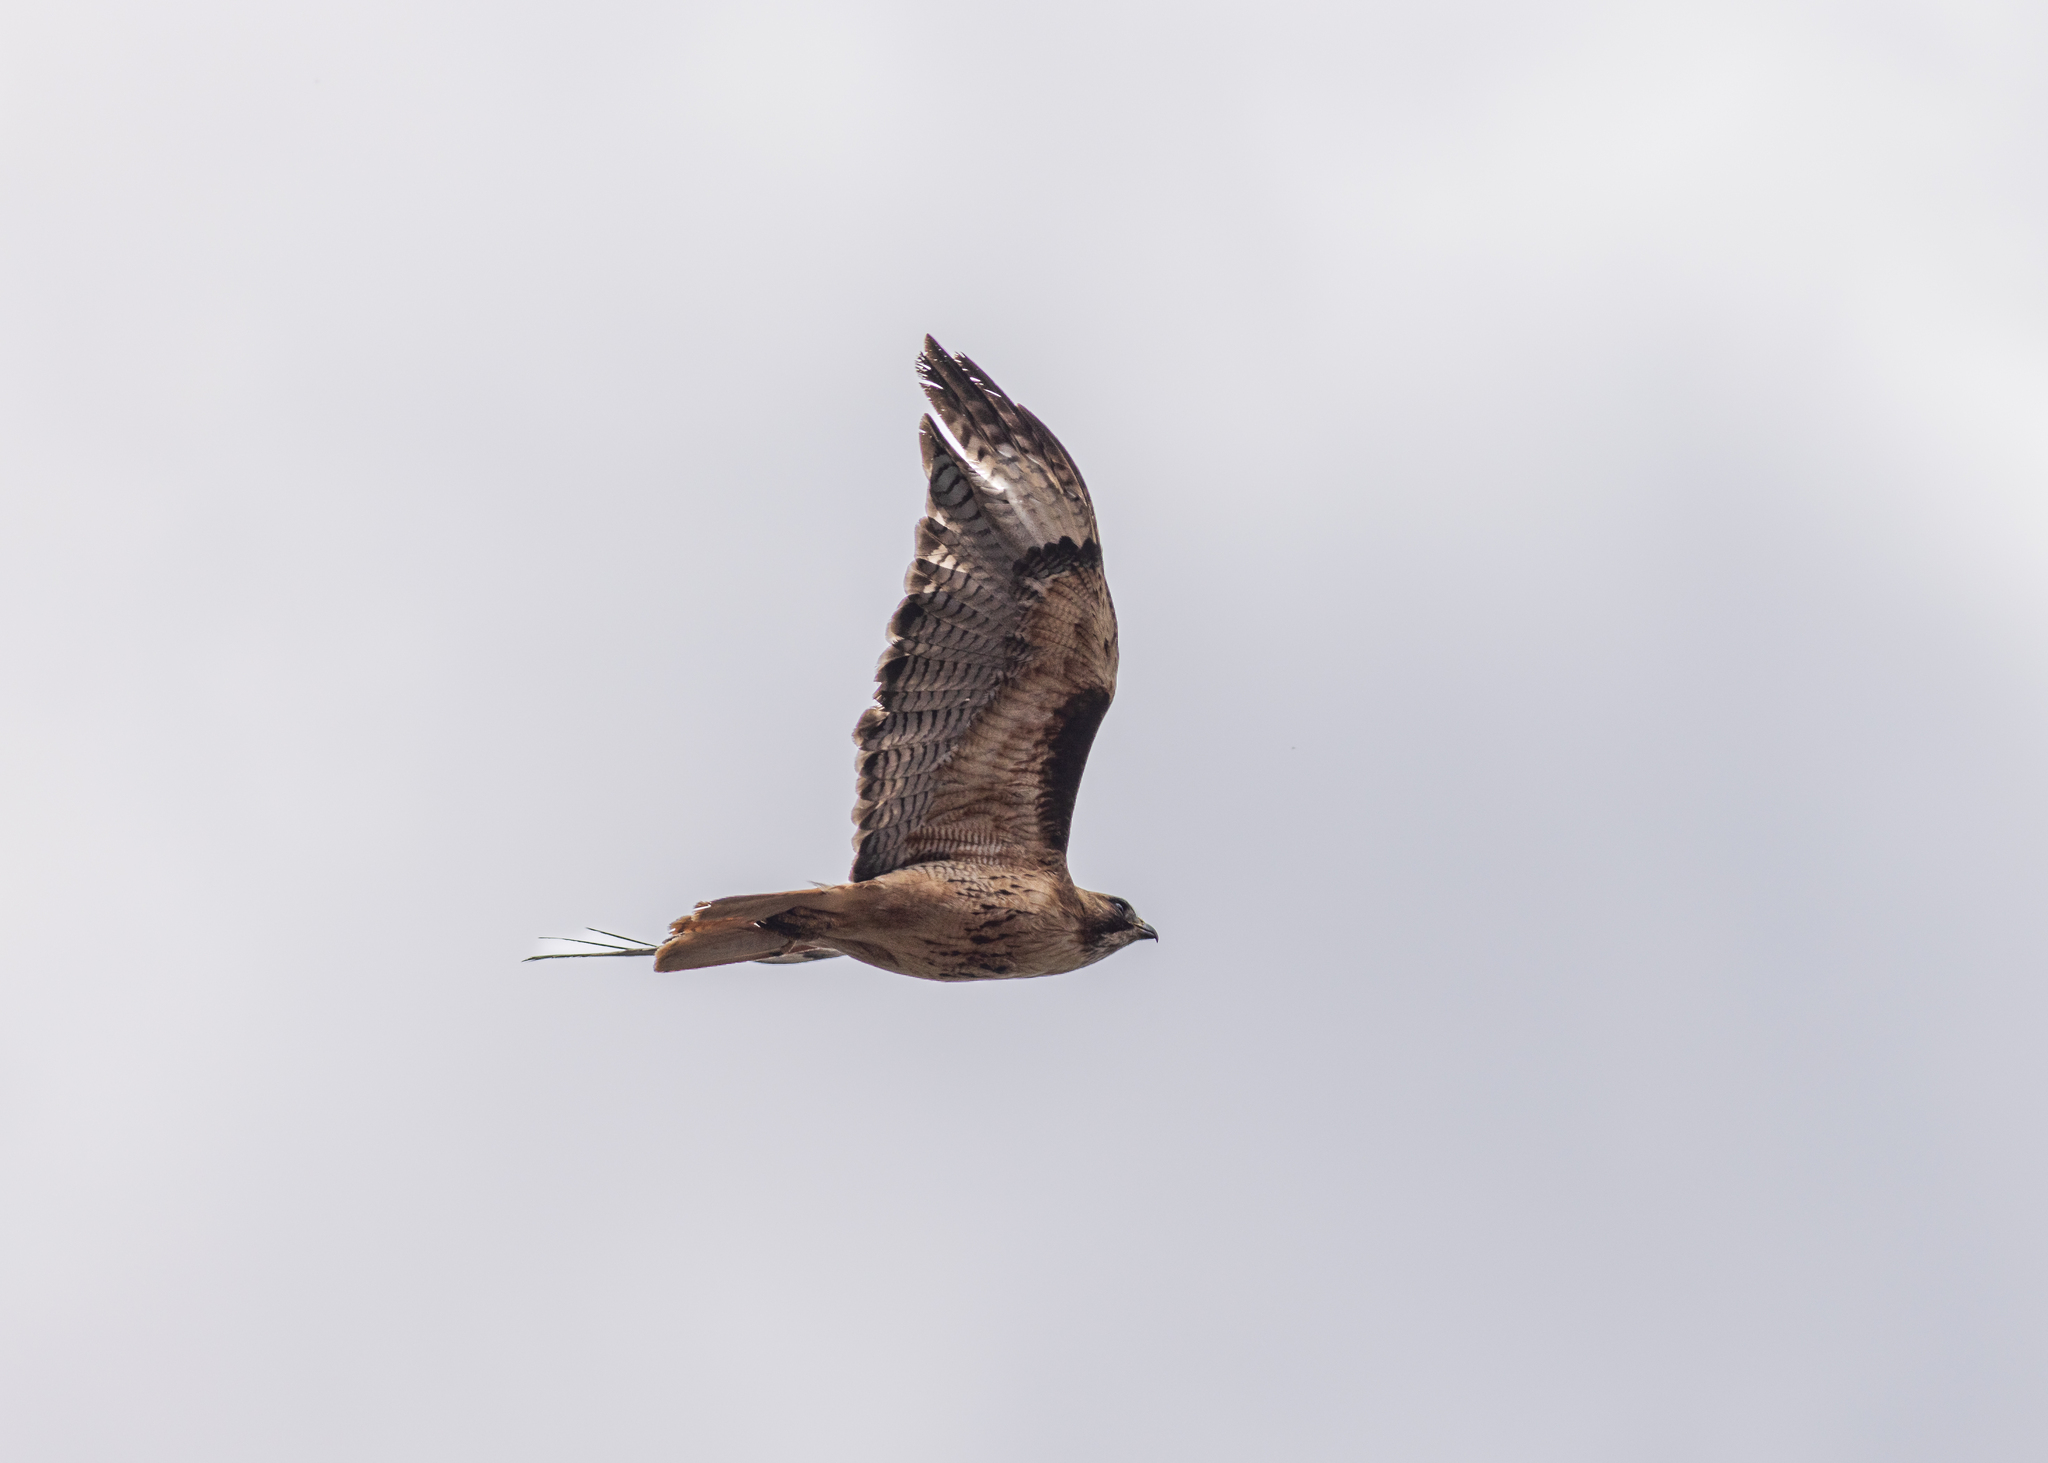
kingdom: Animalia
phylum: Chordata
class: Aves
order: Accipitriformes
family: Accipitridae
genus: Buteo
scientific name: Buteo jamaicensis
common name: Red-tailed hawk
